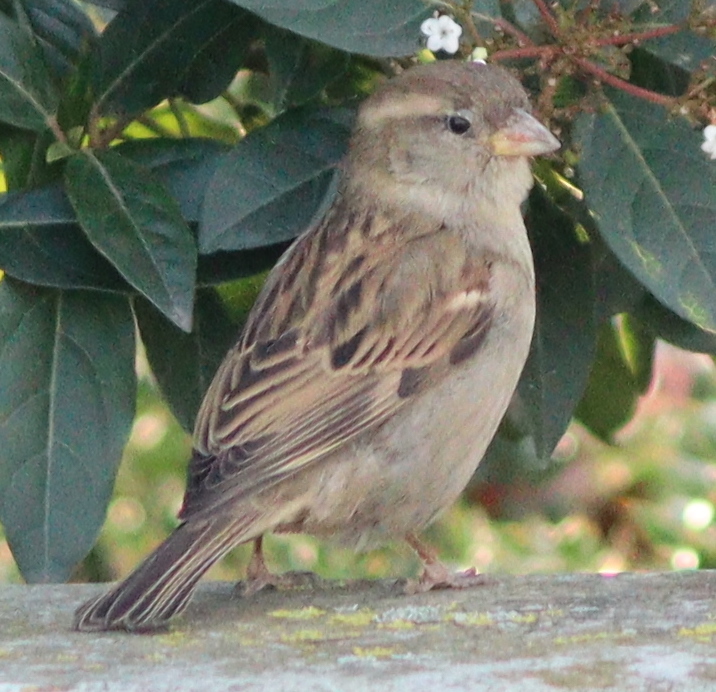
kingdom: Animalia
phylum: Chordata
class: Aves
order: Passeriformes
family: Passeridae
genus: Passer
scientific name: Passer domesticus
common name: House sparrow
